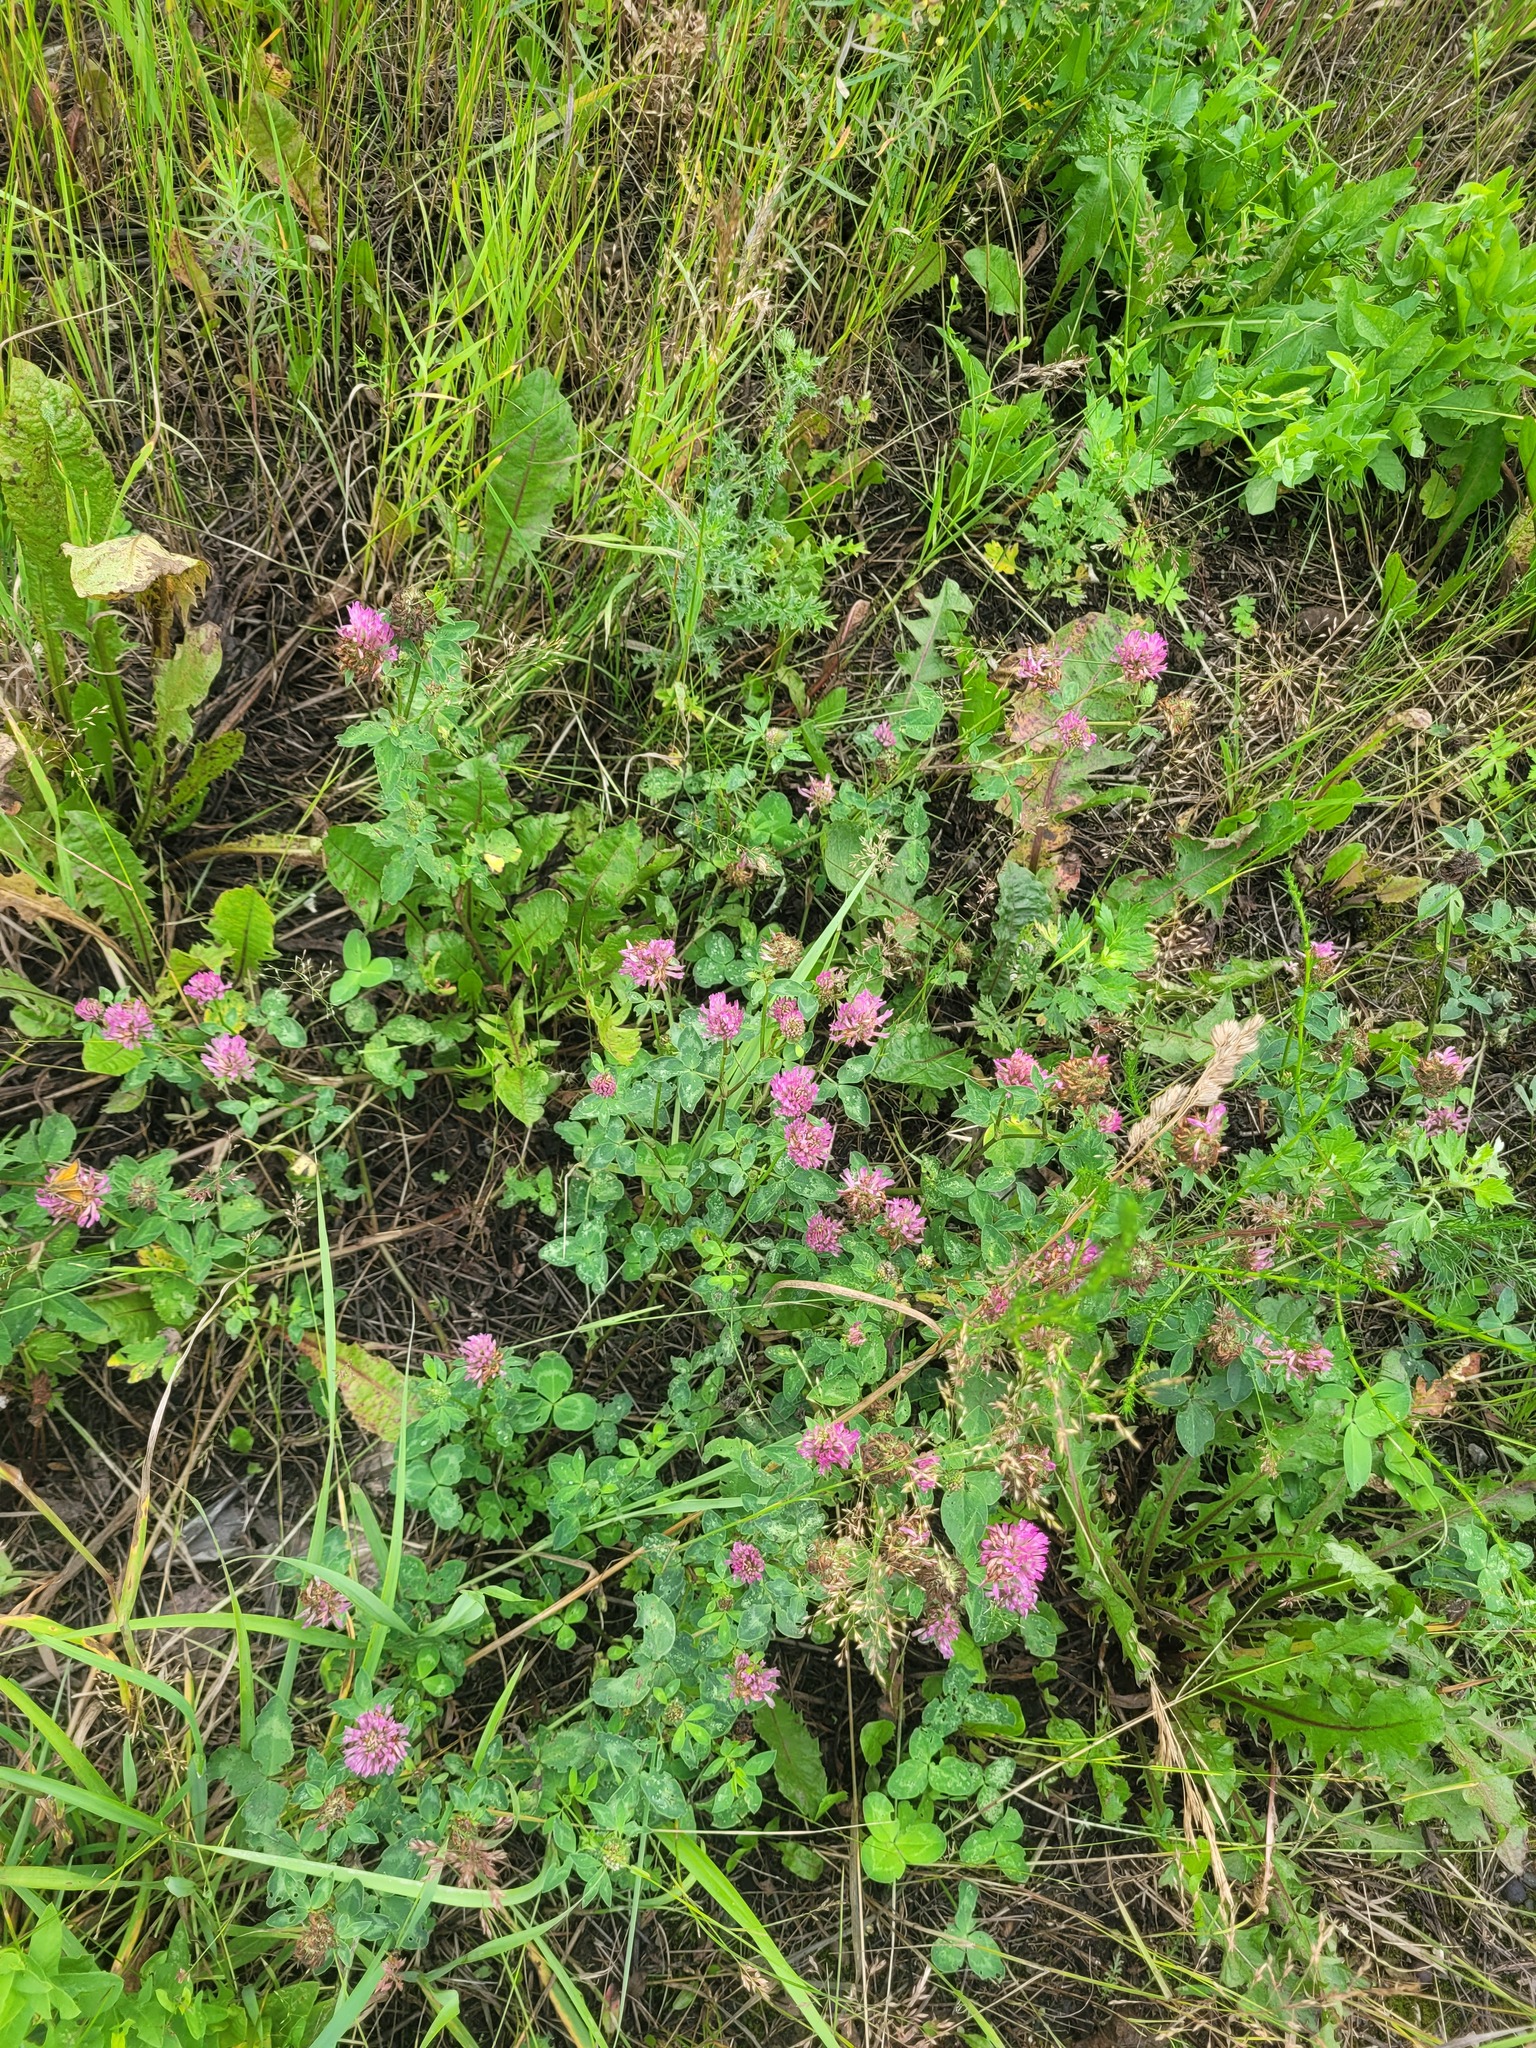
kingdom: Plantae
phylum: Tracheophyta
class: Magnoliopsida
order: Fabales
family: Fabaceae
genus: Trifolium
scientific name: Trifolium pratense
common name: Red clover
